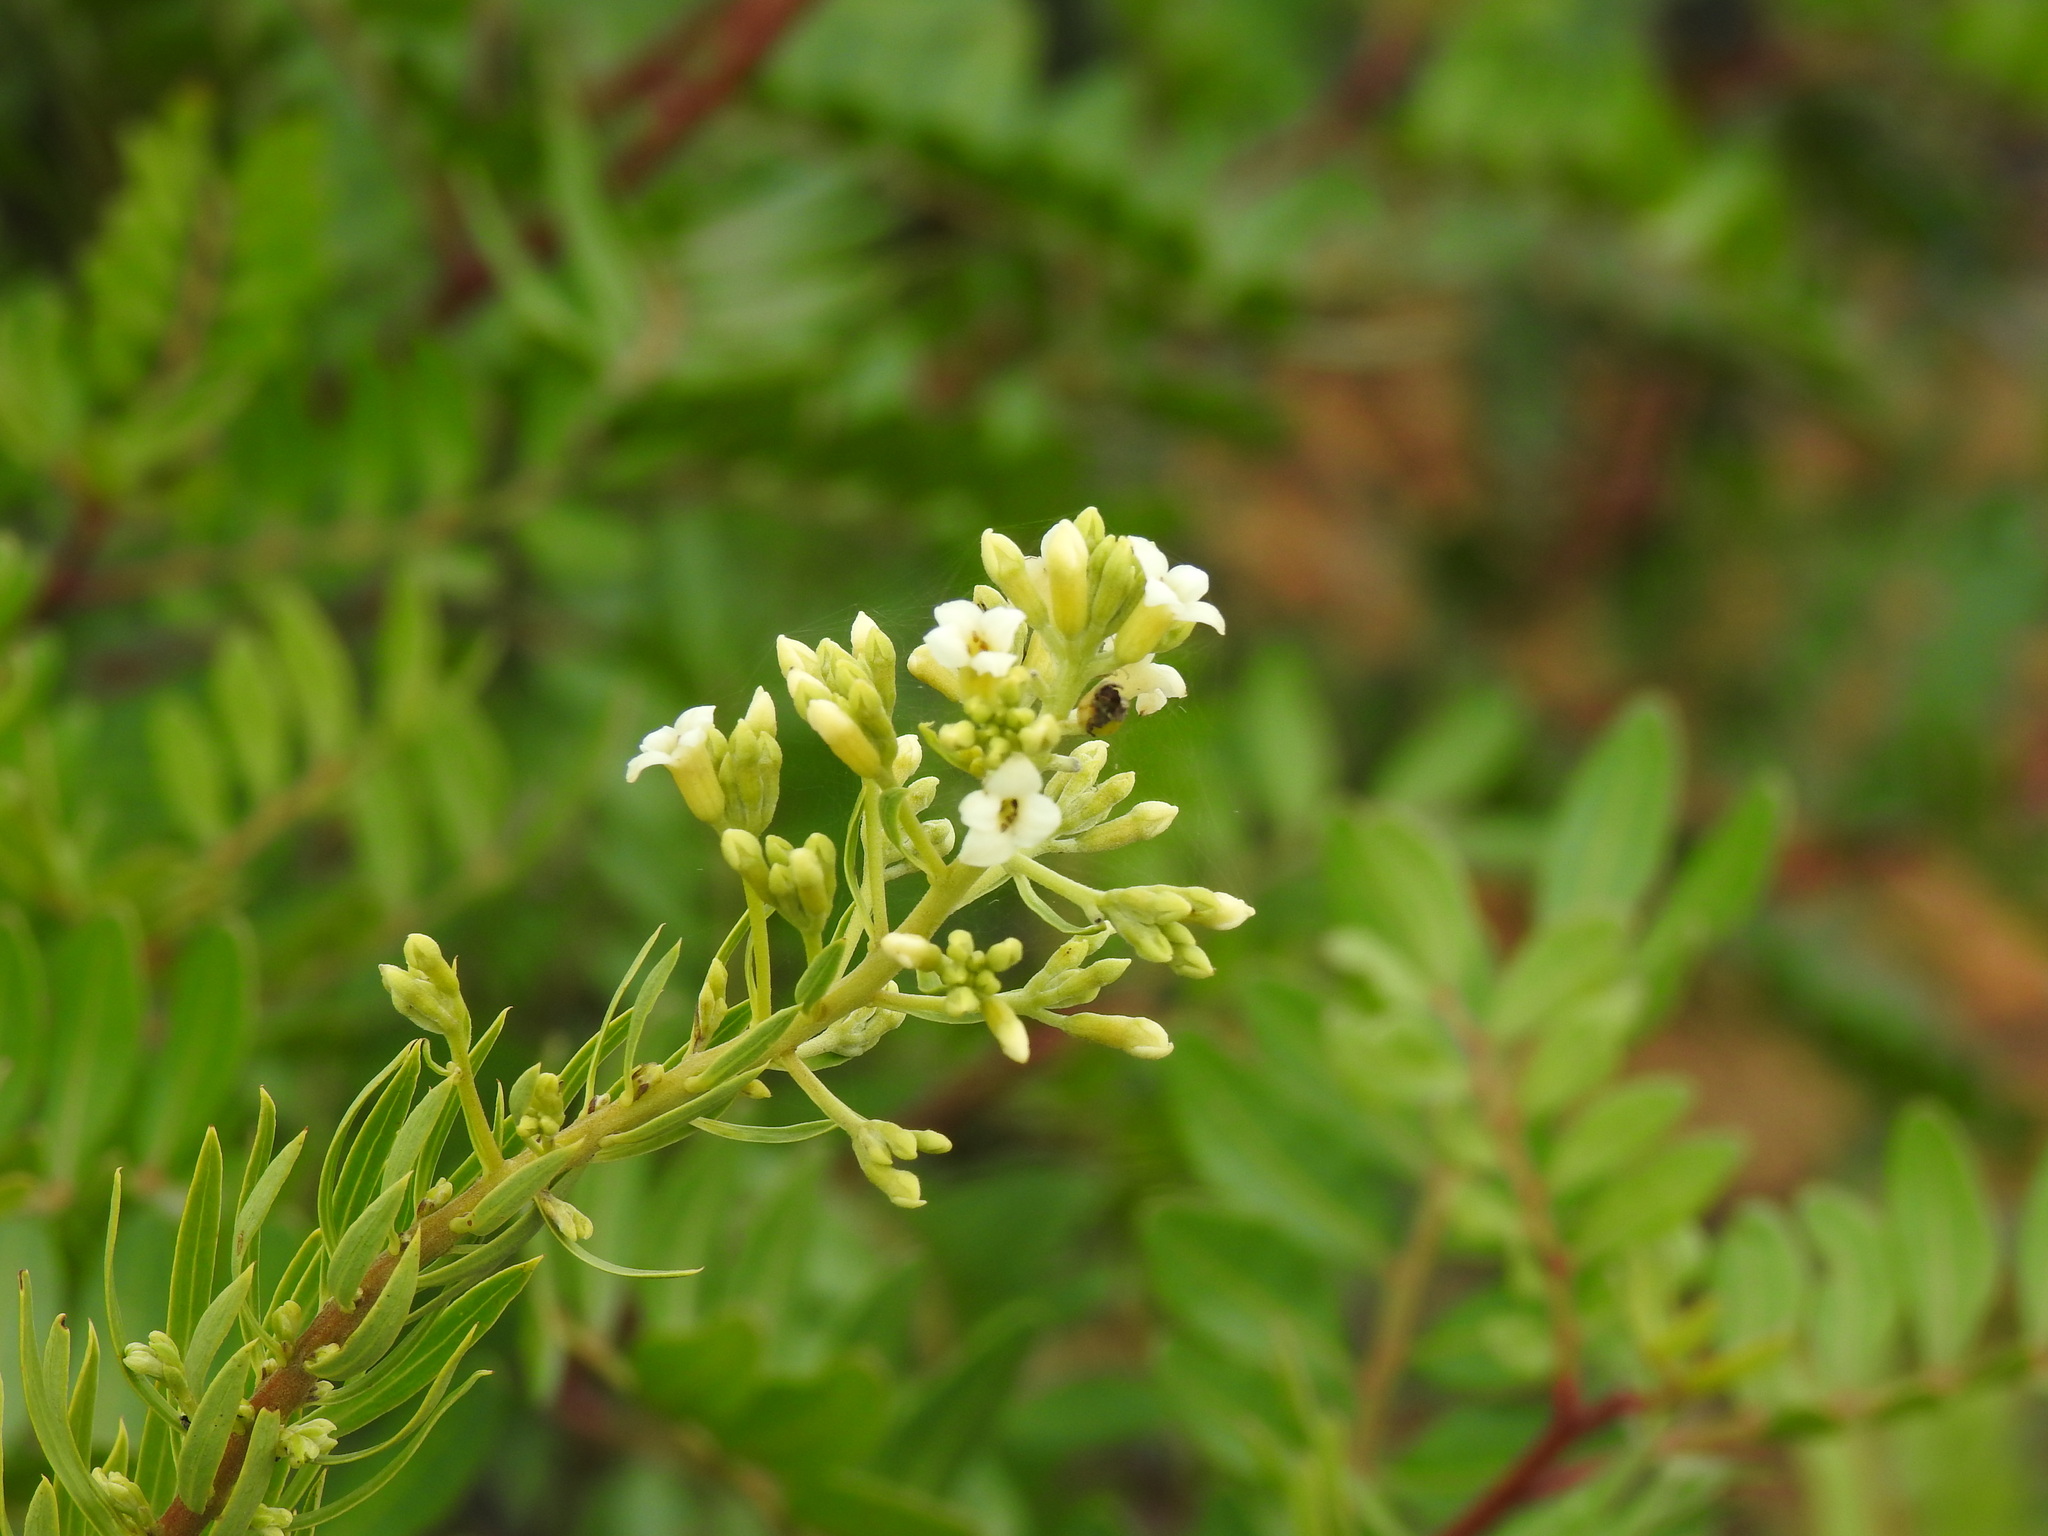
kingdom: Plantae
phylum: Tracheophyta
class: Magnoliopsida
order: Malvales
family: Thymelaeaceae
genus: Daphne
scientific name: Daphne gnidium
